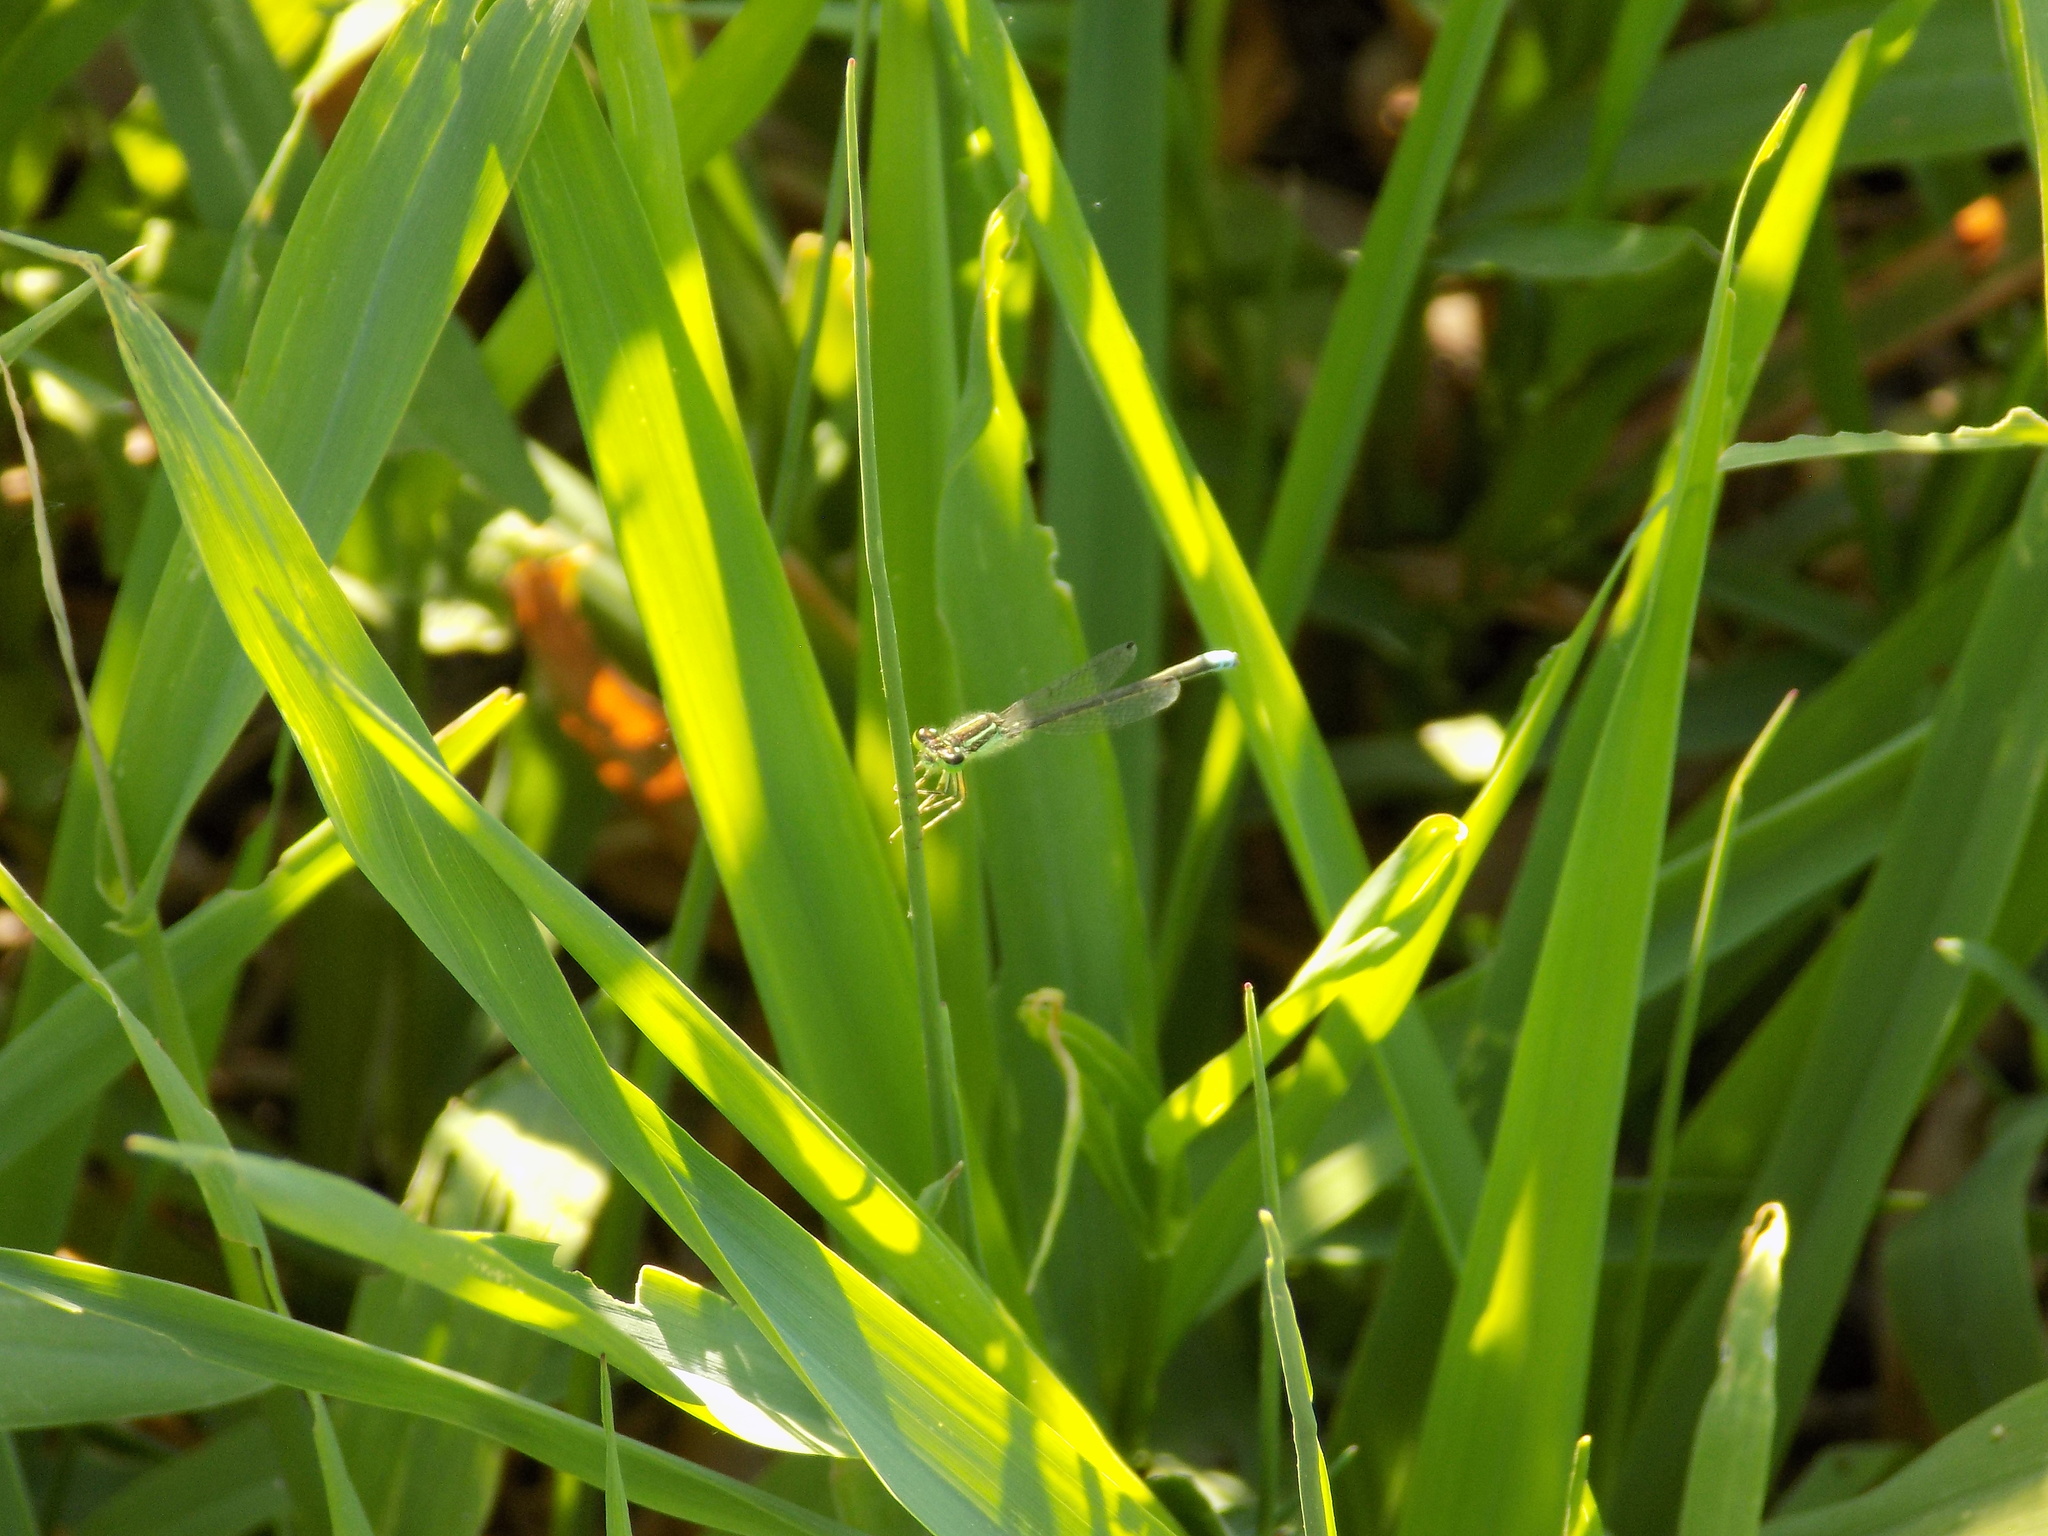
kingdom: Animalia
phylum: Arthropoda
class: Insecta
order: Odonata
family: Coenagrionidae
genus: Ischnura
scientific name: Ischnura verticalis
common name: Eastern forktail
